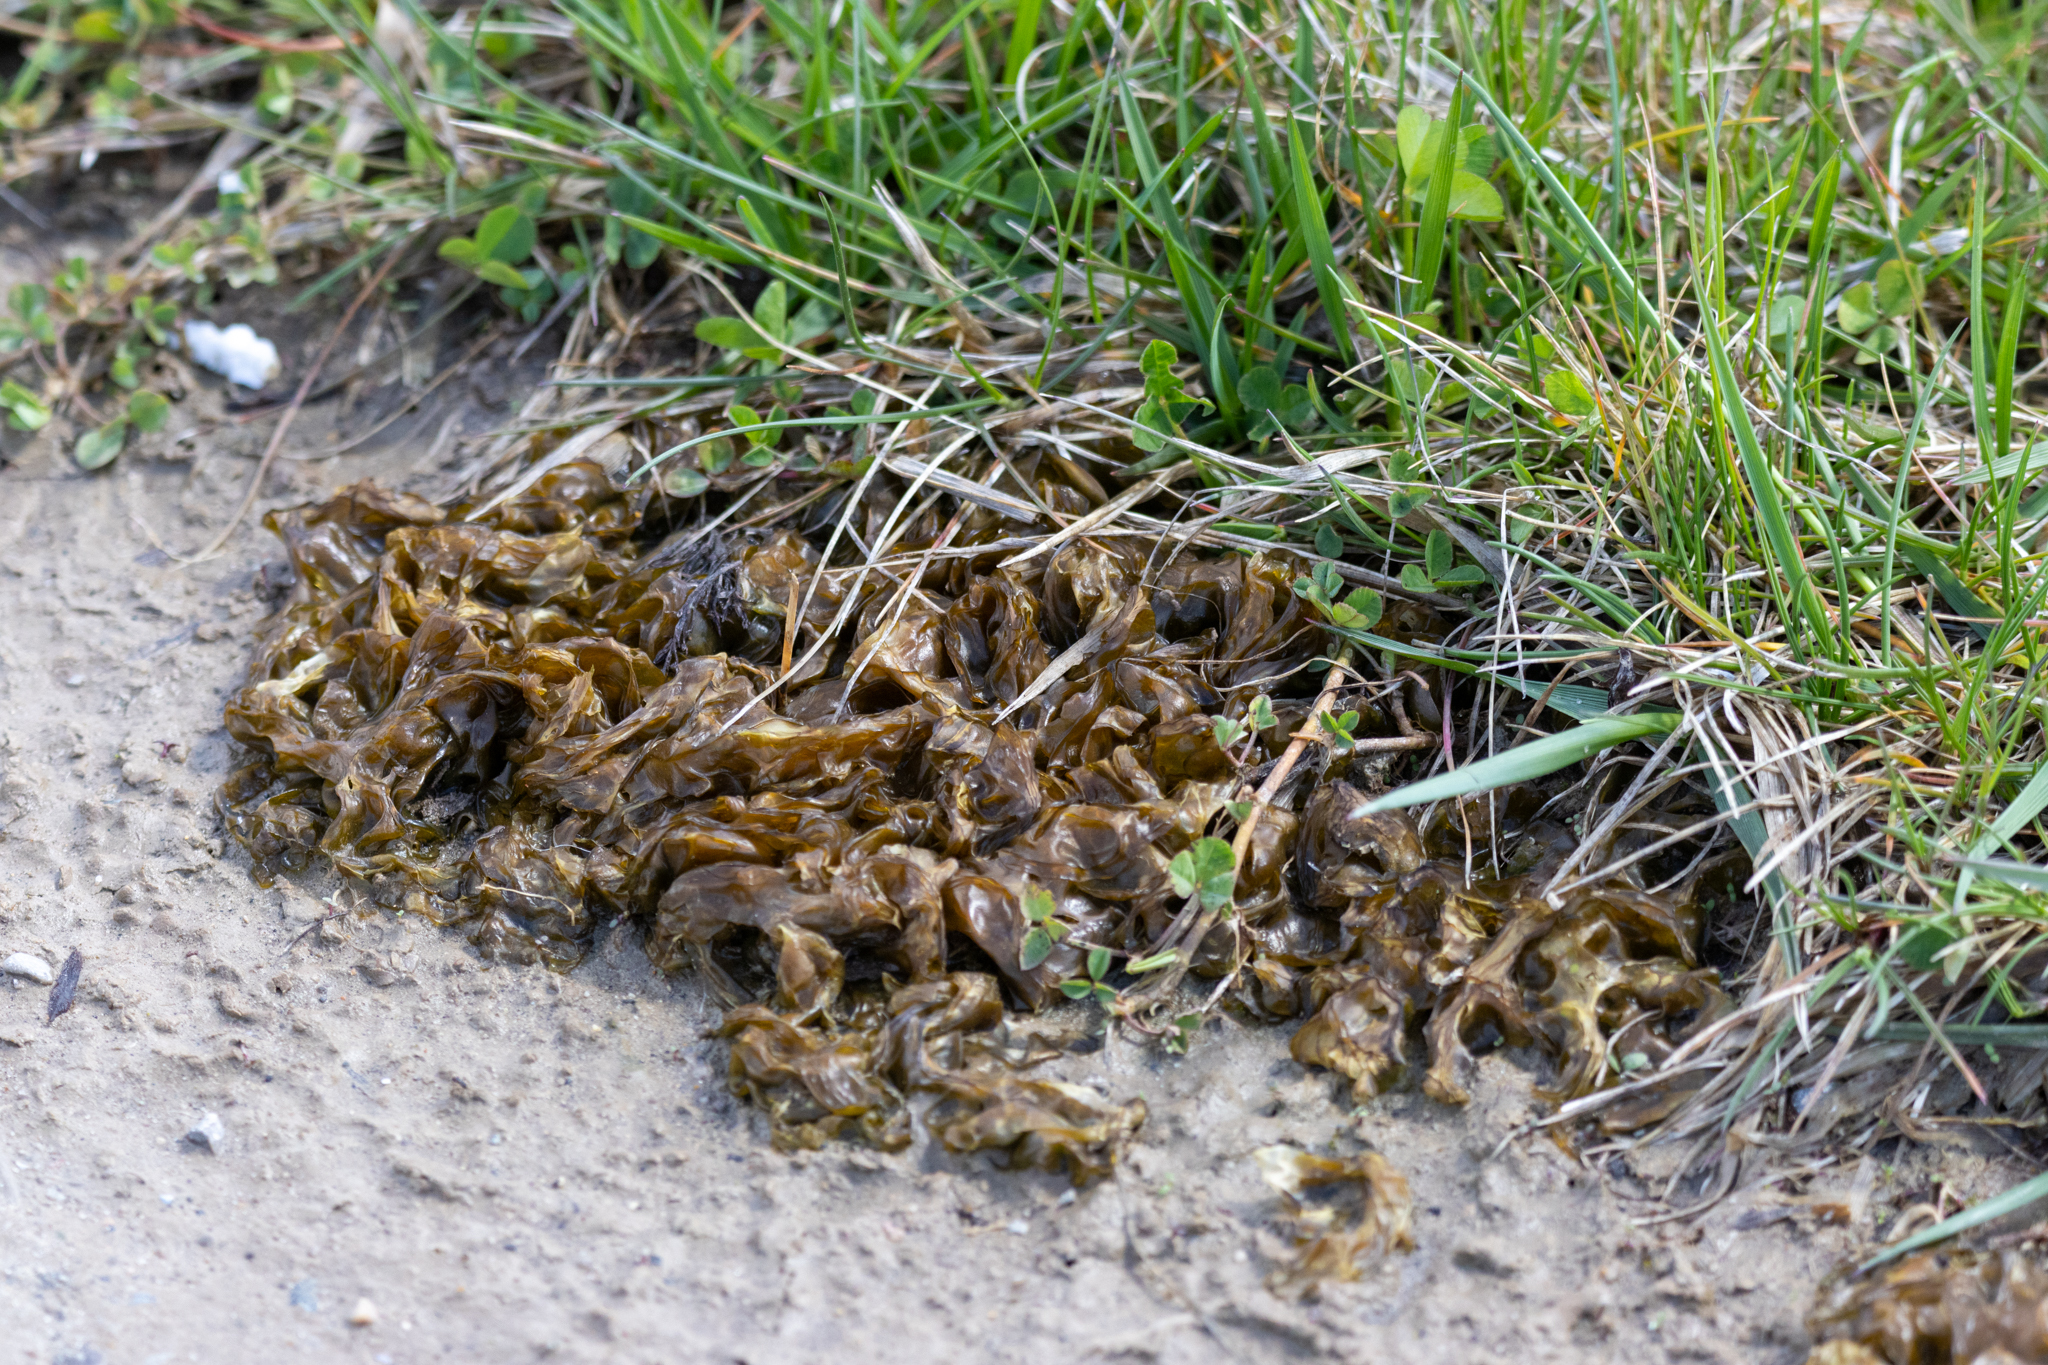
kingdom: Bacteria
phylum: Cyanobacteria
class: Cyanobacteriia
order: Cyanobacteriales
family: Nostocaceae
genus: Nostoc
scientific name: Nostoc commune
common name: Star jelly
